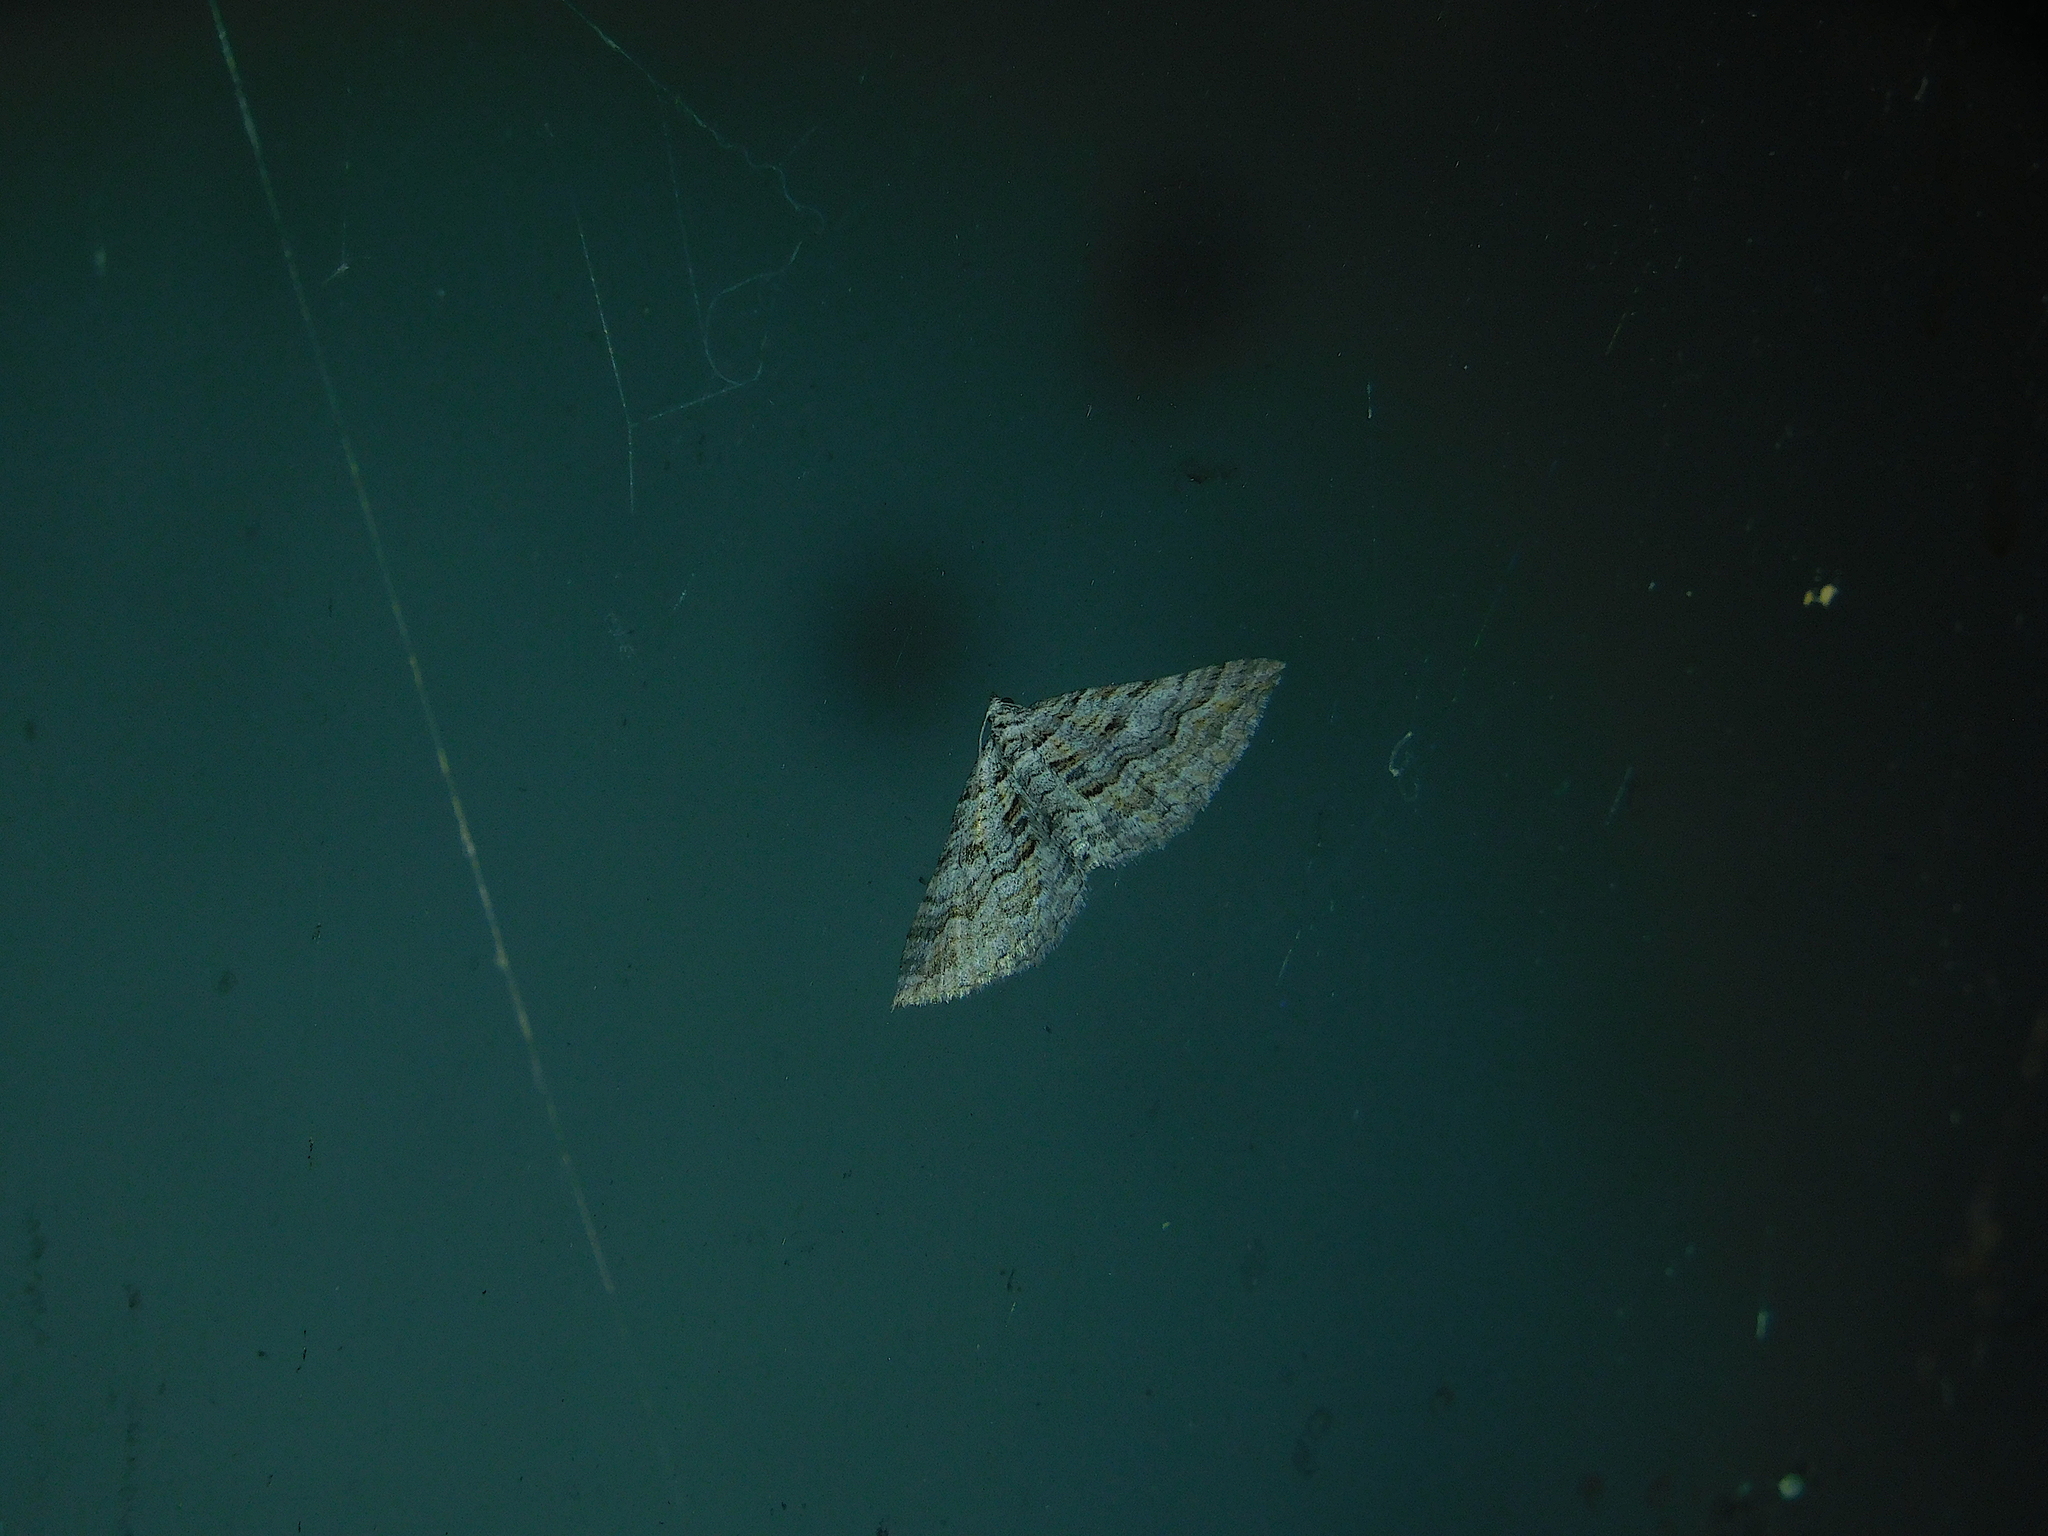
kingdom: Animalia
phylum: Arthropoda
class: Insecta
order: Lepidoptera
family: Geometridae
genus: Chrysolarentia
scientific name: Chrysolarentia severata
